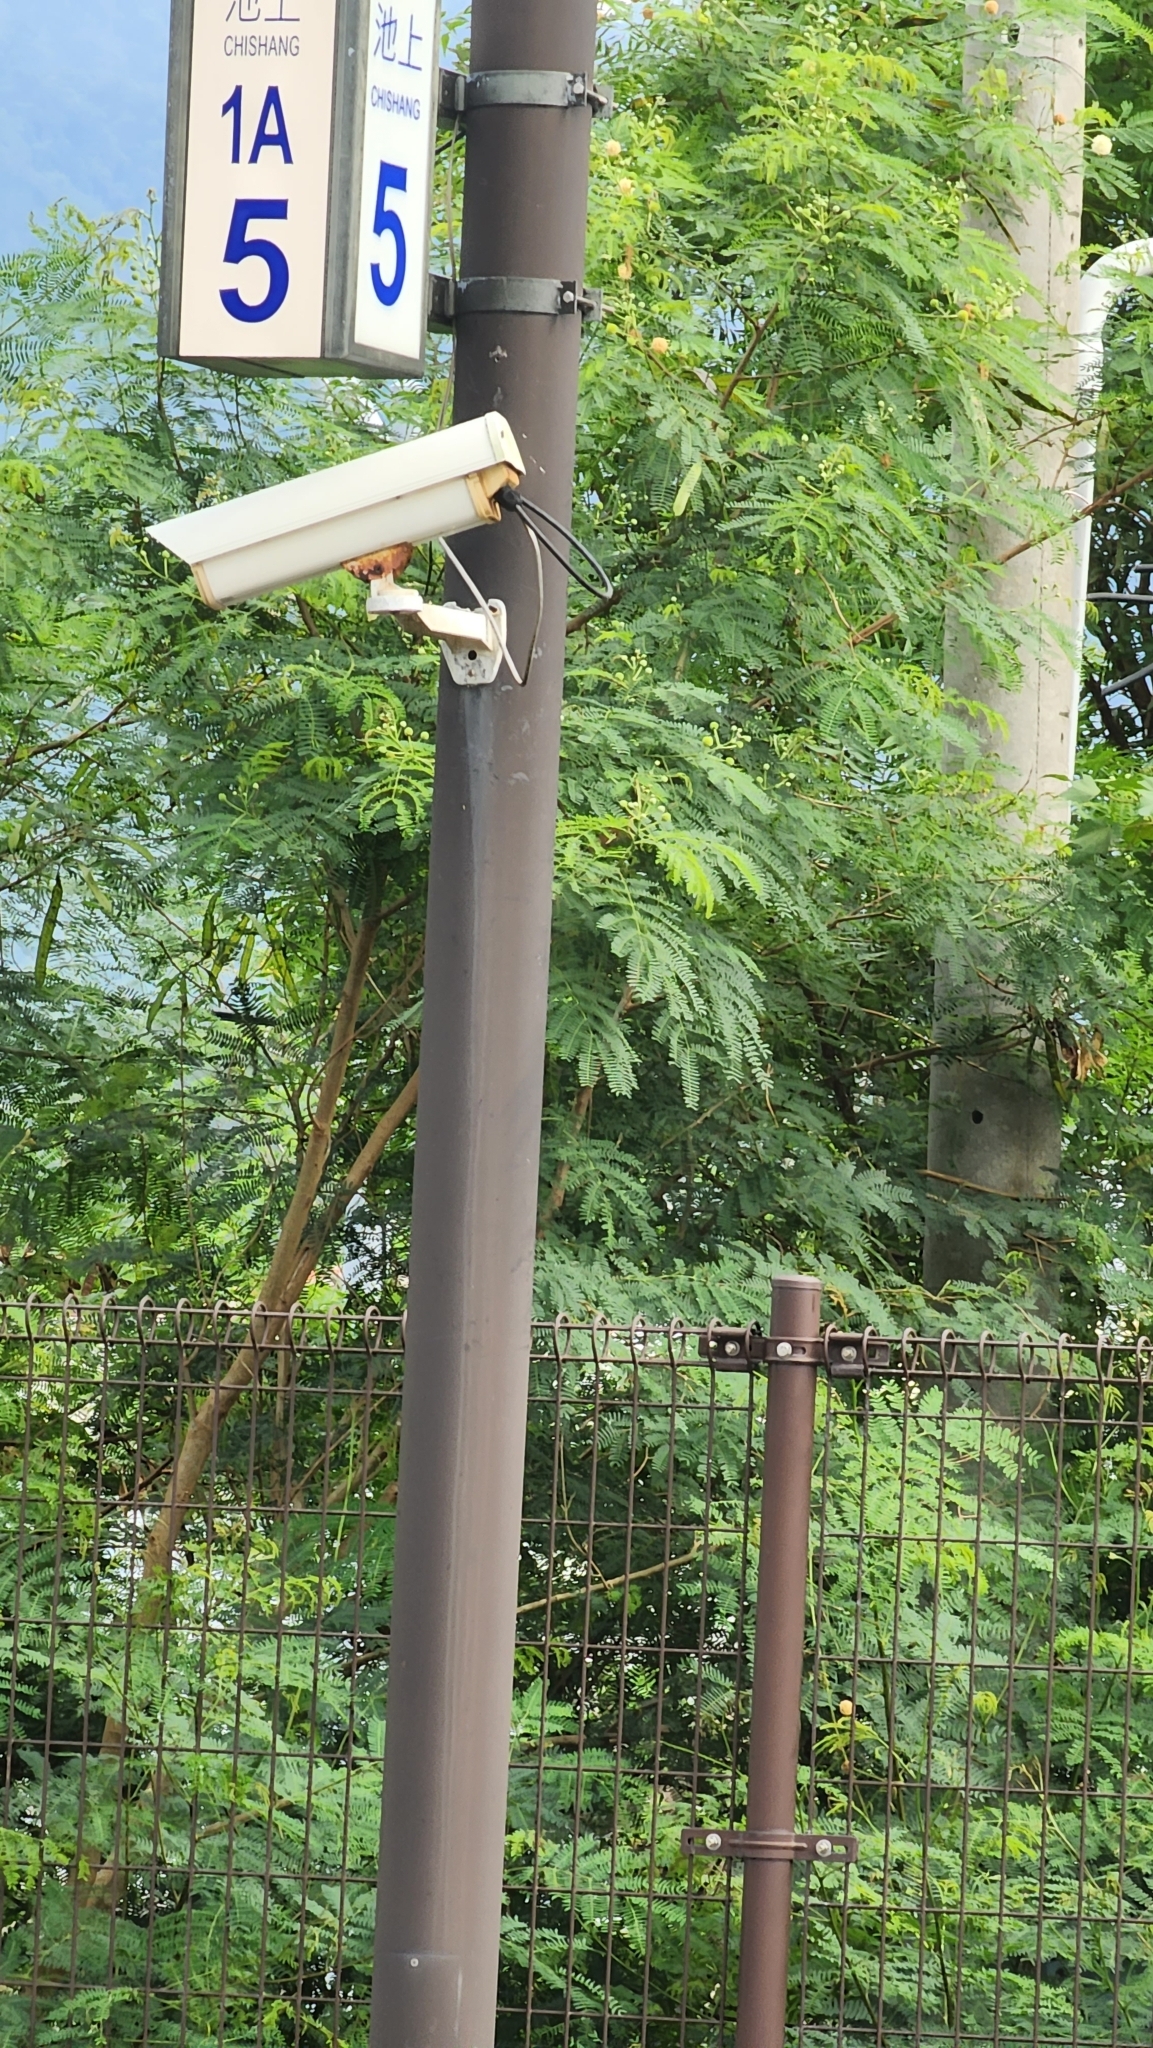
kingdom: Plantae
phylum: Tracheophyta
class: Magnoliopsida
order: Fabales
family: Fabaceae
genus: Leucaena
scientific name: Leucaena leucocephala
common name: White leadtree
